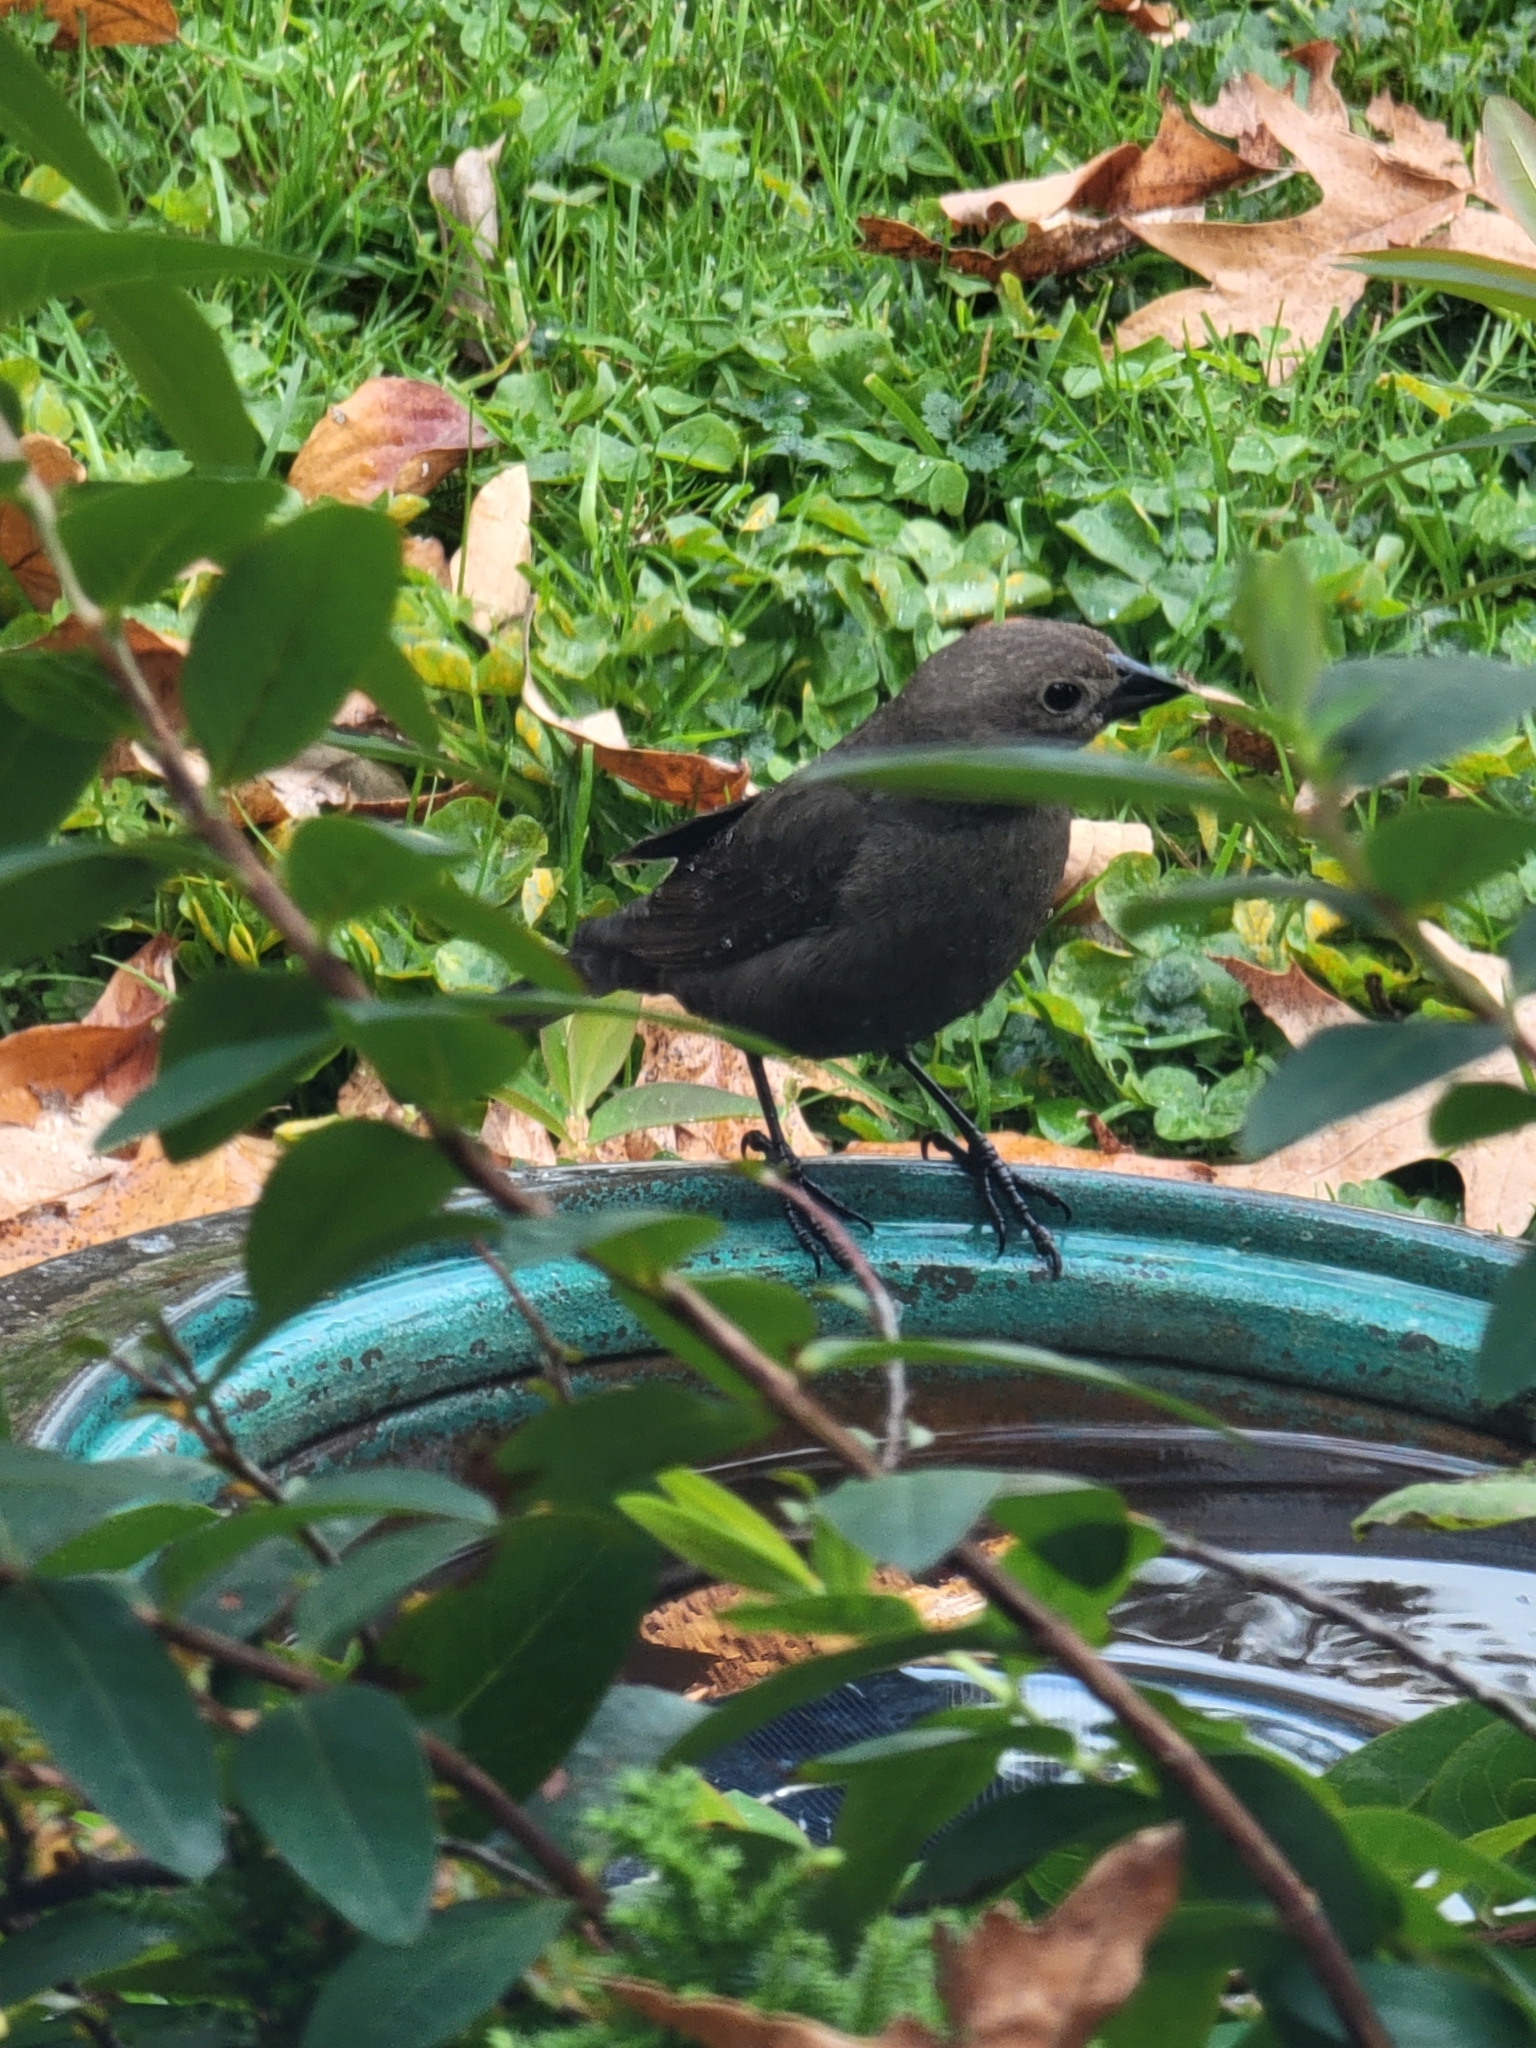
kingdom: Animalia
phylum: Chordata
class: Aves
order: Passeriformes
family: Icteridae
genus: Molothrus
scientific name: Molothrus ater
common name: Brown-headed cowbird
